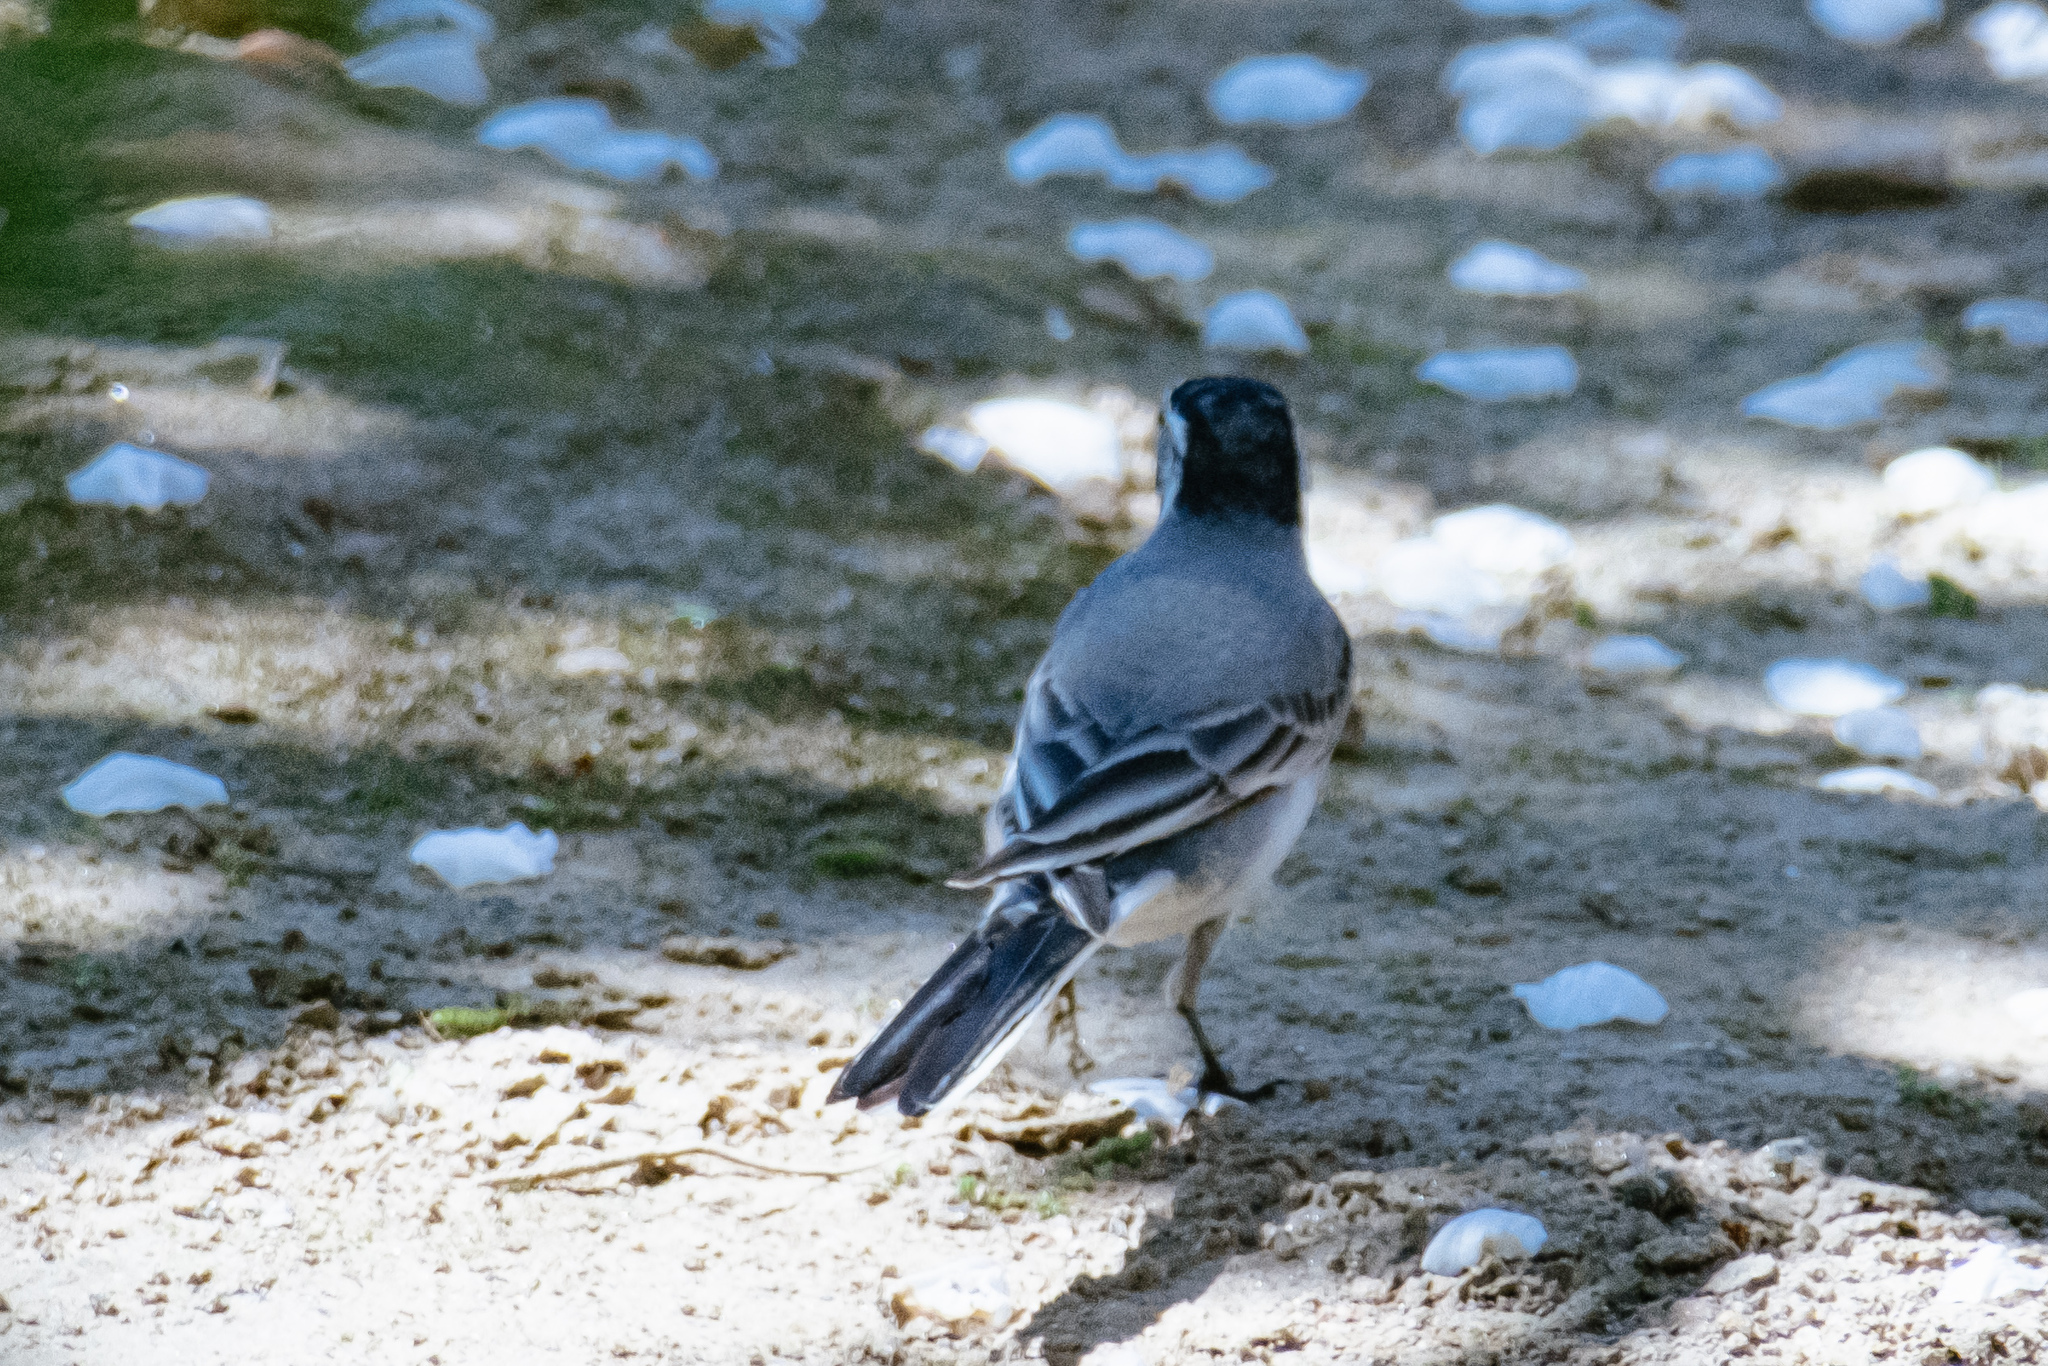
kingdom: Animalia
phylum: Chordata
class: Aves
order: Passeriformes
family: Motacillidae
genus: Motacilla
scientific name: Motacilla alba
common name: White wagtail
